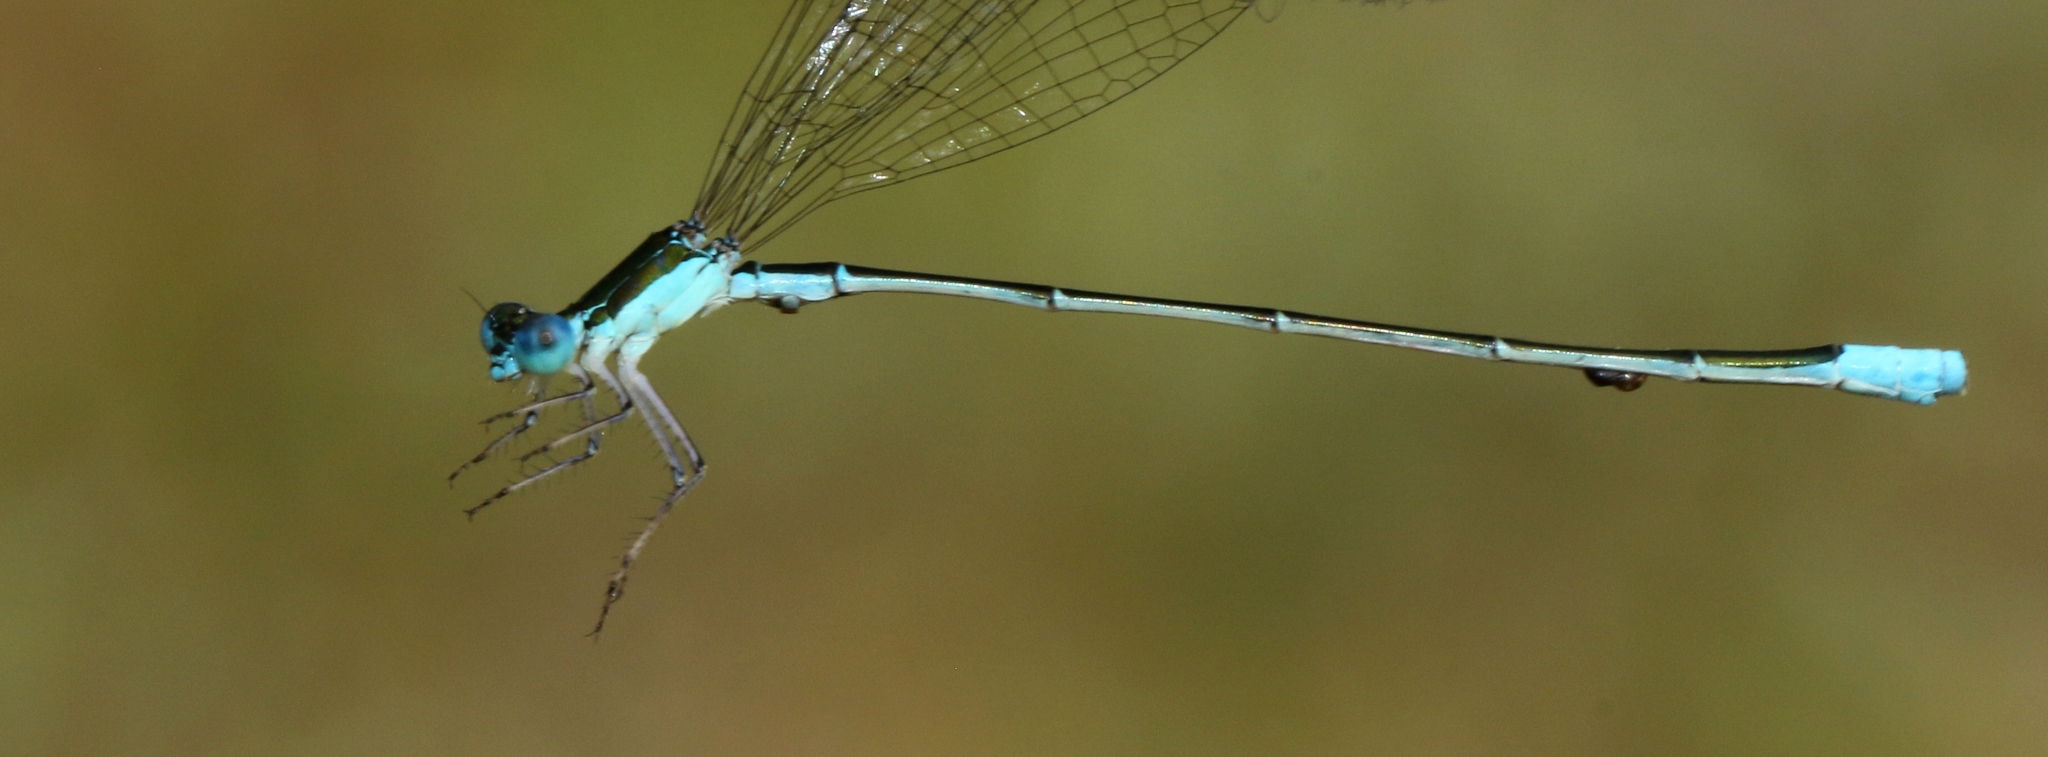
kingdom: Animalia
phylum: Arthropoda
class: Insecta
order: Odonata
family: Coenagrionidae
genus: Nehalennia
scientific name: Nehalennia gracilis
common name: Sphagnum sprite
